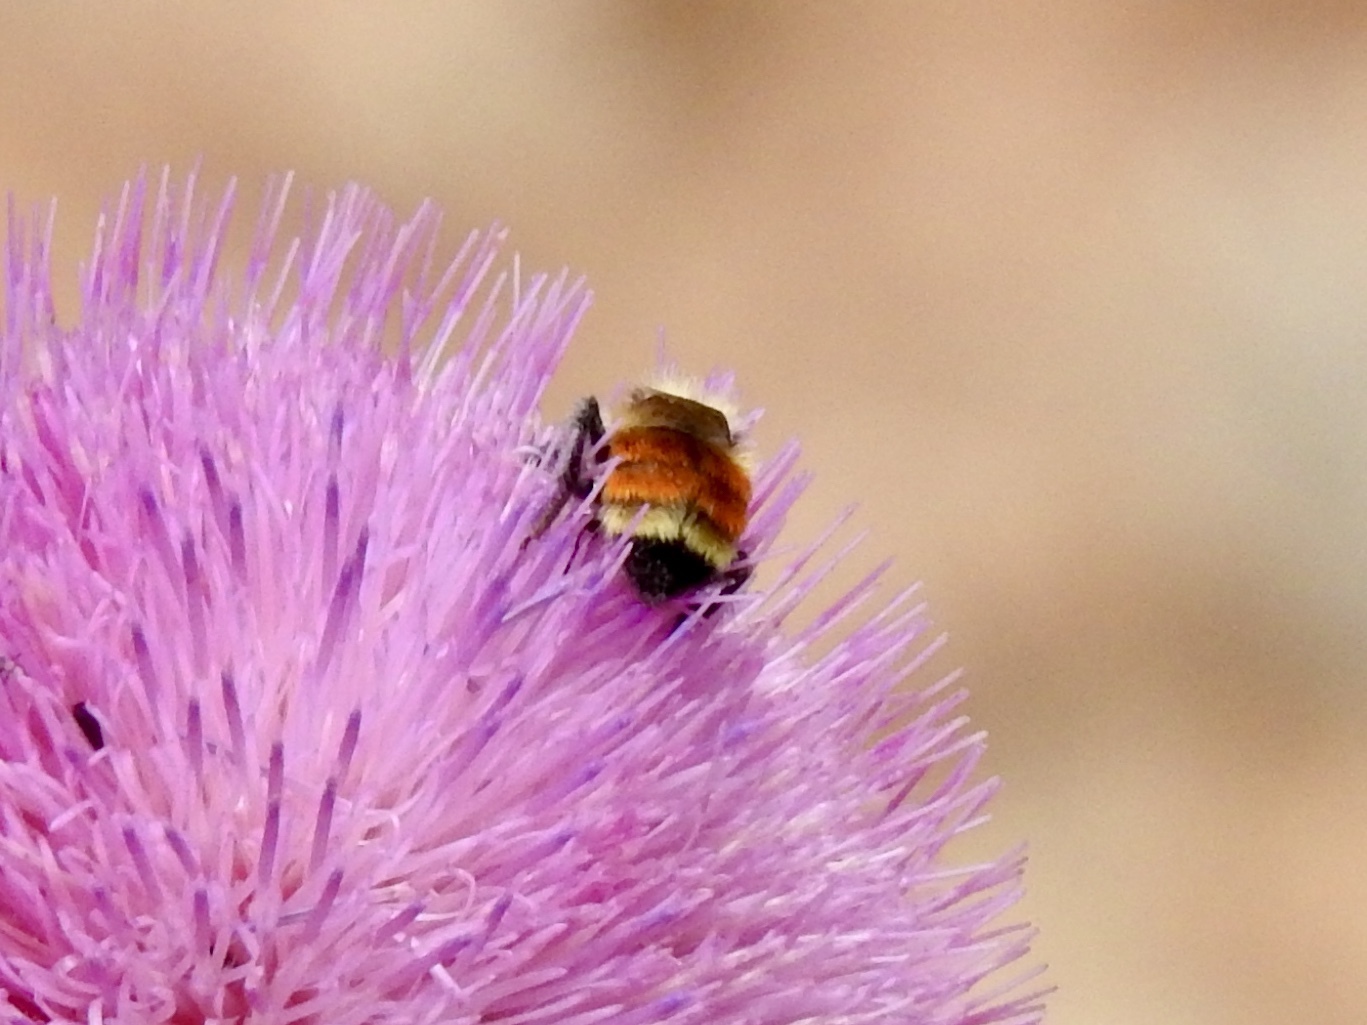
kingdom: Animalia
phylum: Arthropoda
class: Insecta
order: Hymenoptera
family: Apidae
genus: Bombus
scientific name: Bombus huntii
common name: Hunt bumble bee
